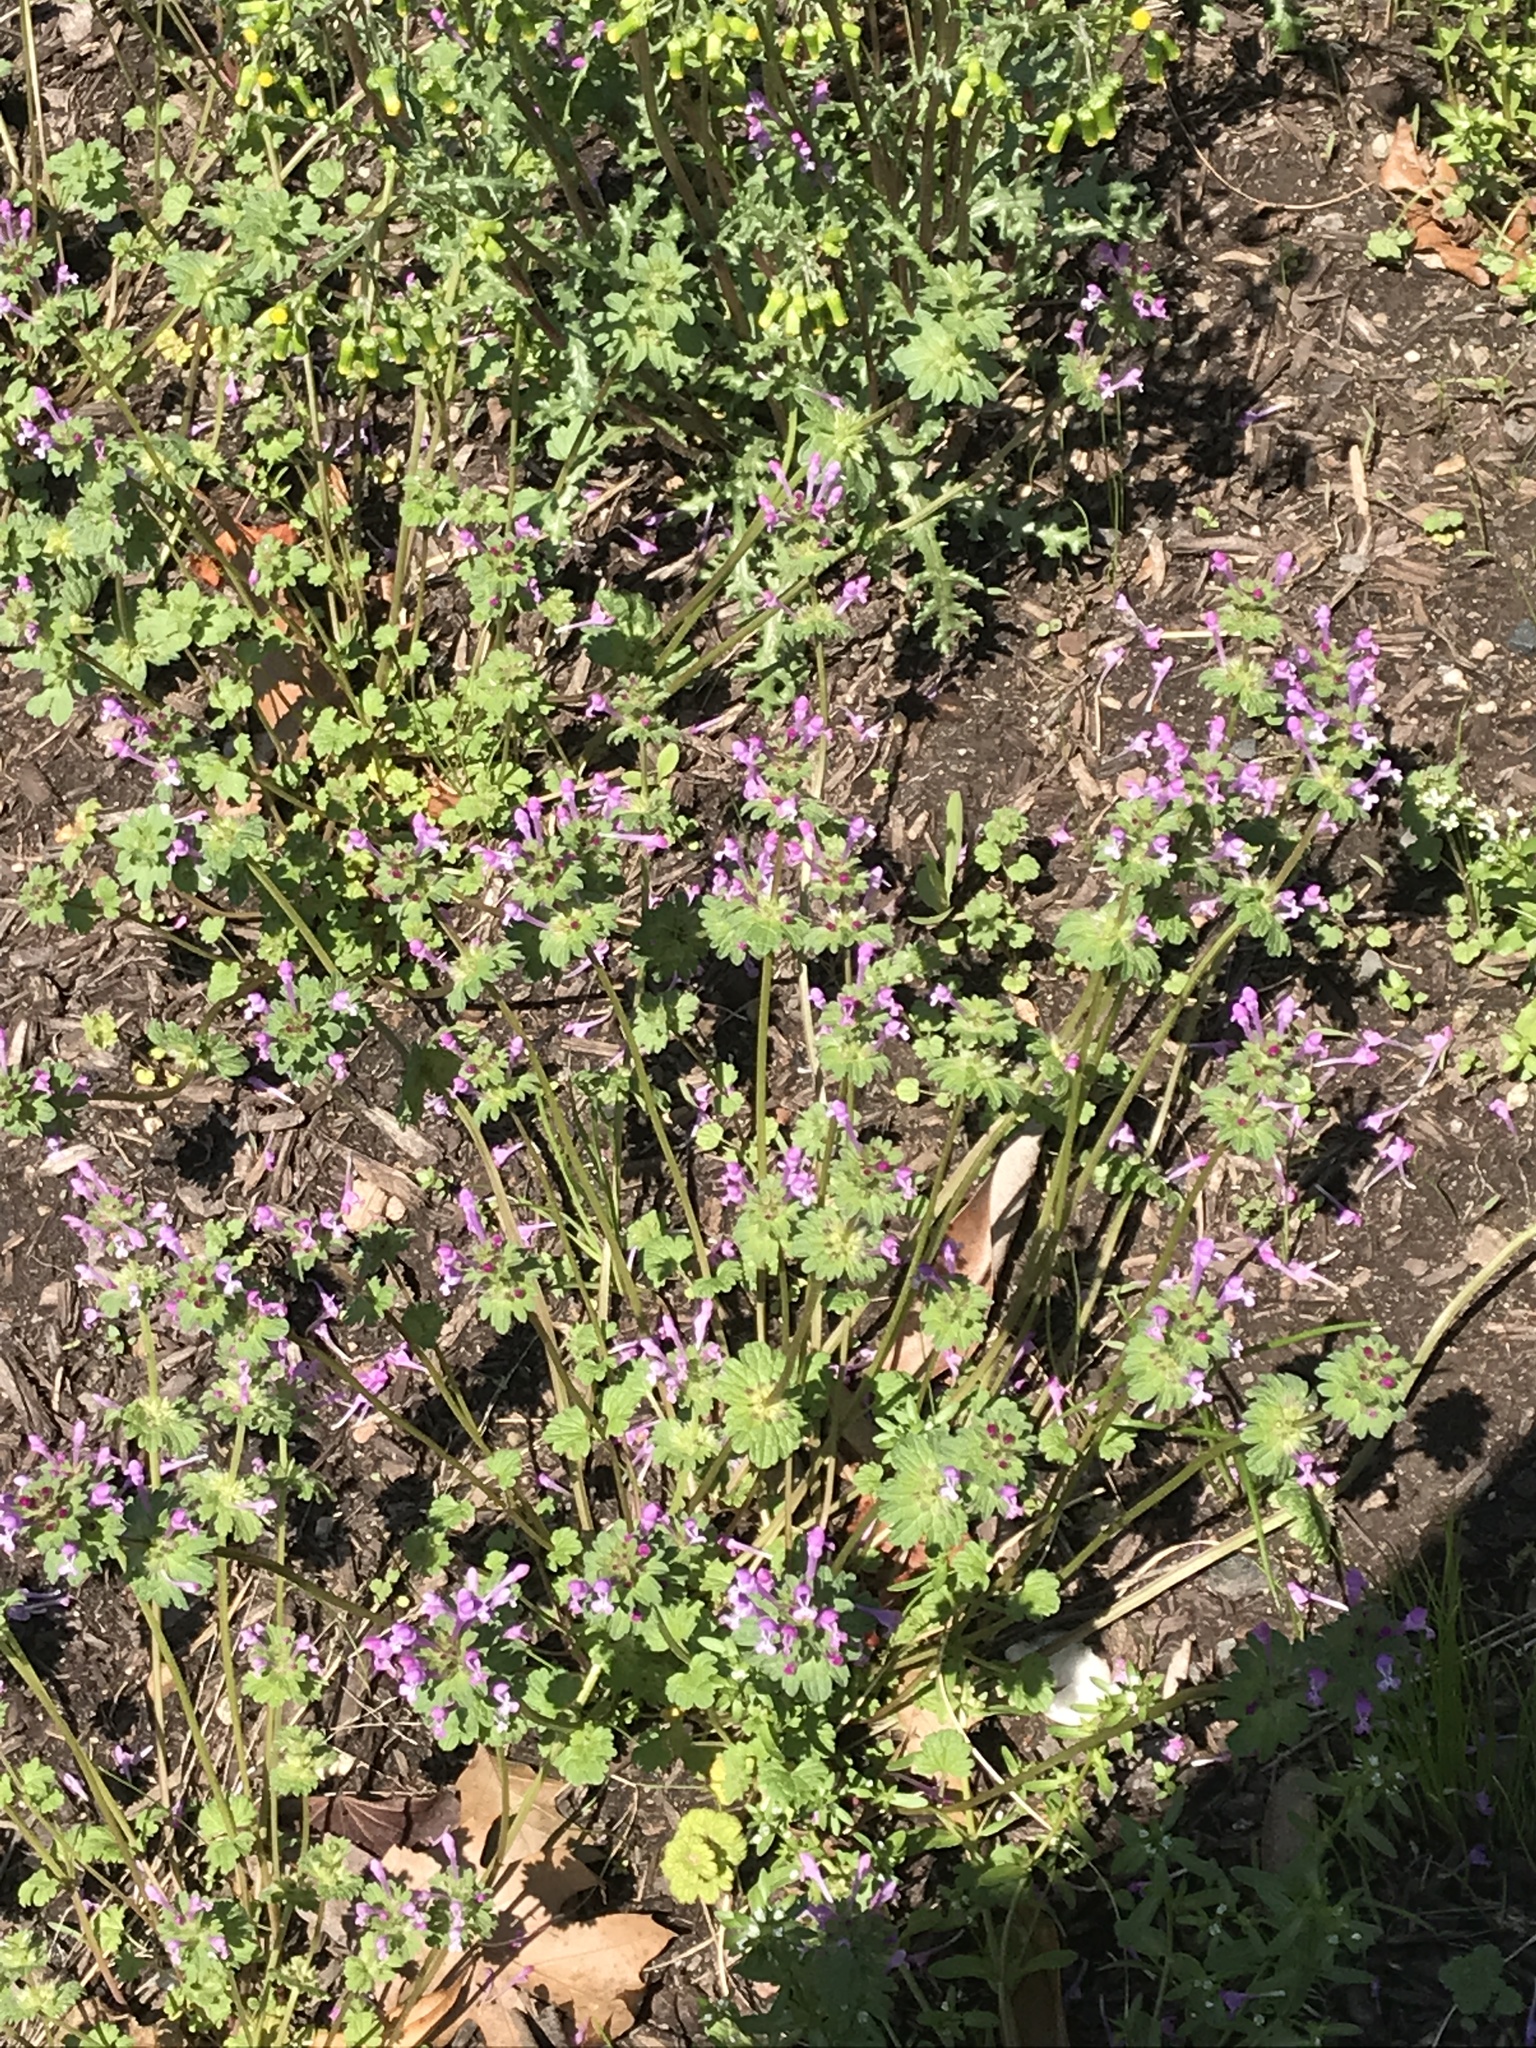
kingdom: Plantae
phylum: Tracheophyta
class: Magnoliopsida
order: Lamiales
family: Lamiaceae
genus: Lamium
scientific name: Lamium amplexicaule
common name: Henbit dead-nettle
